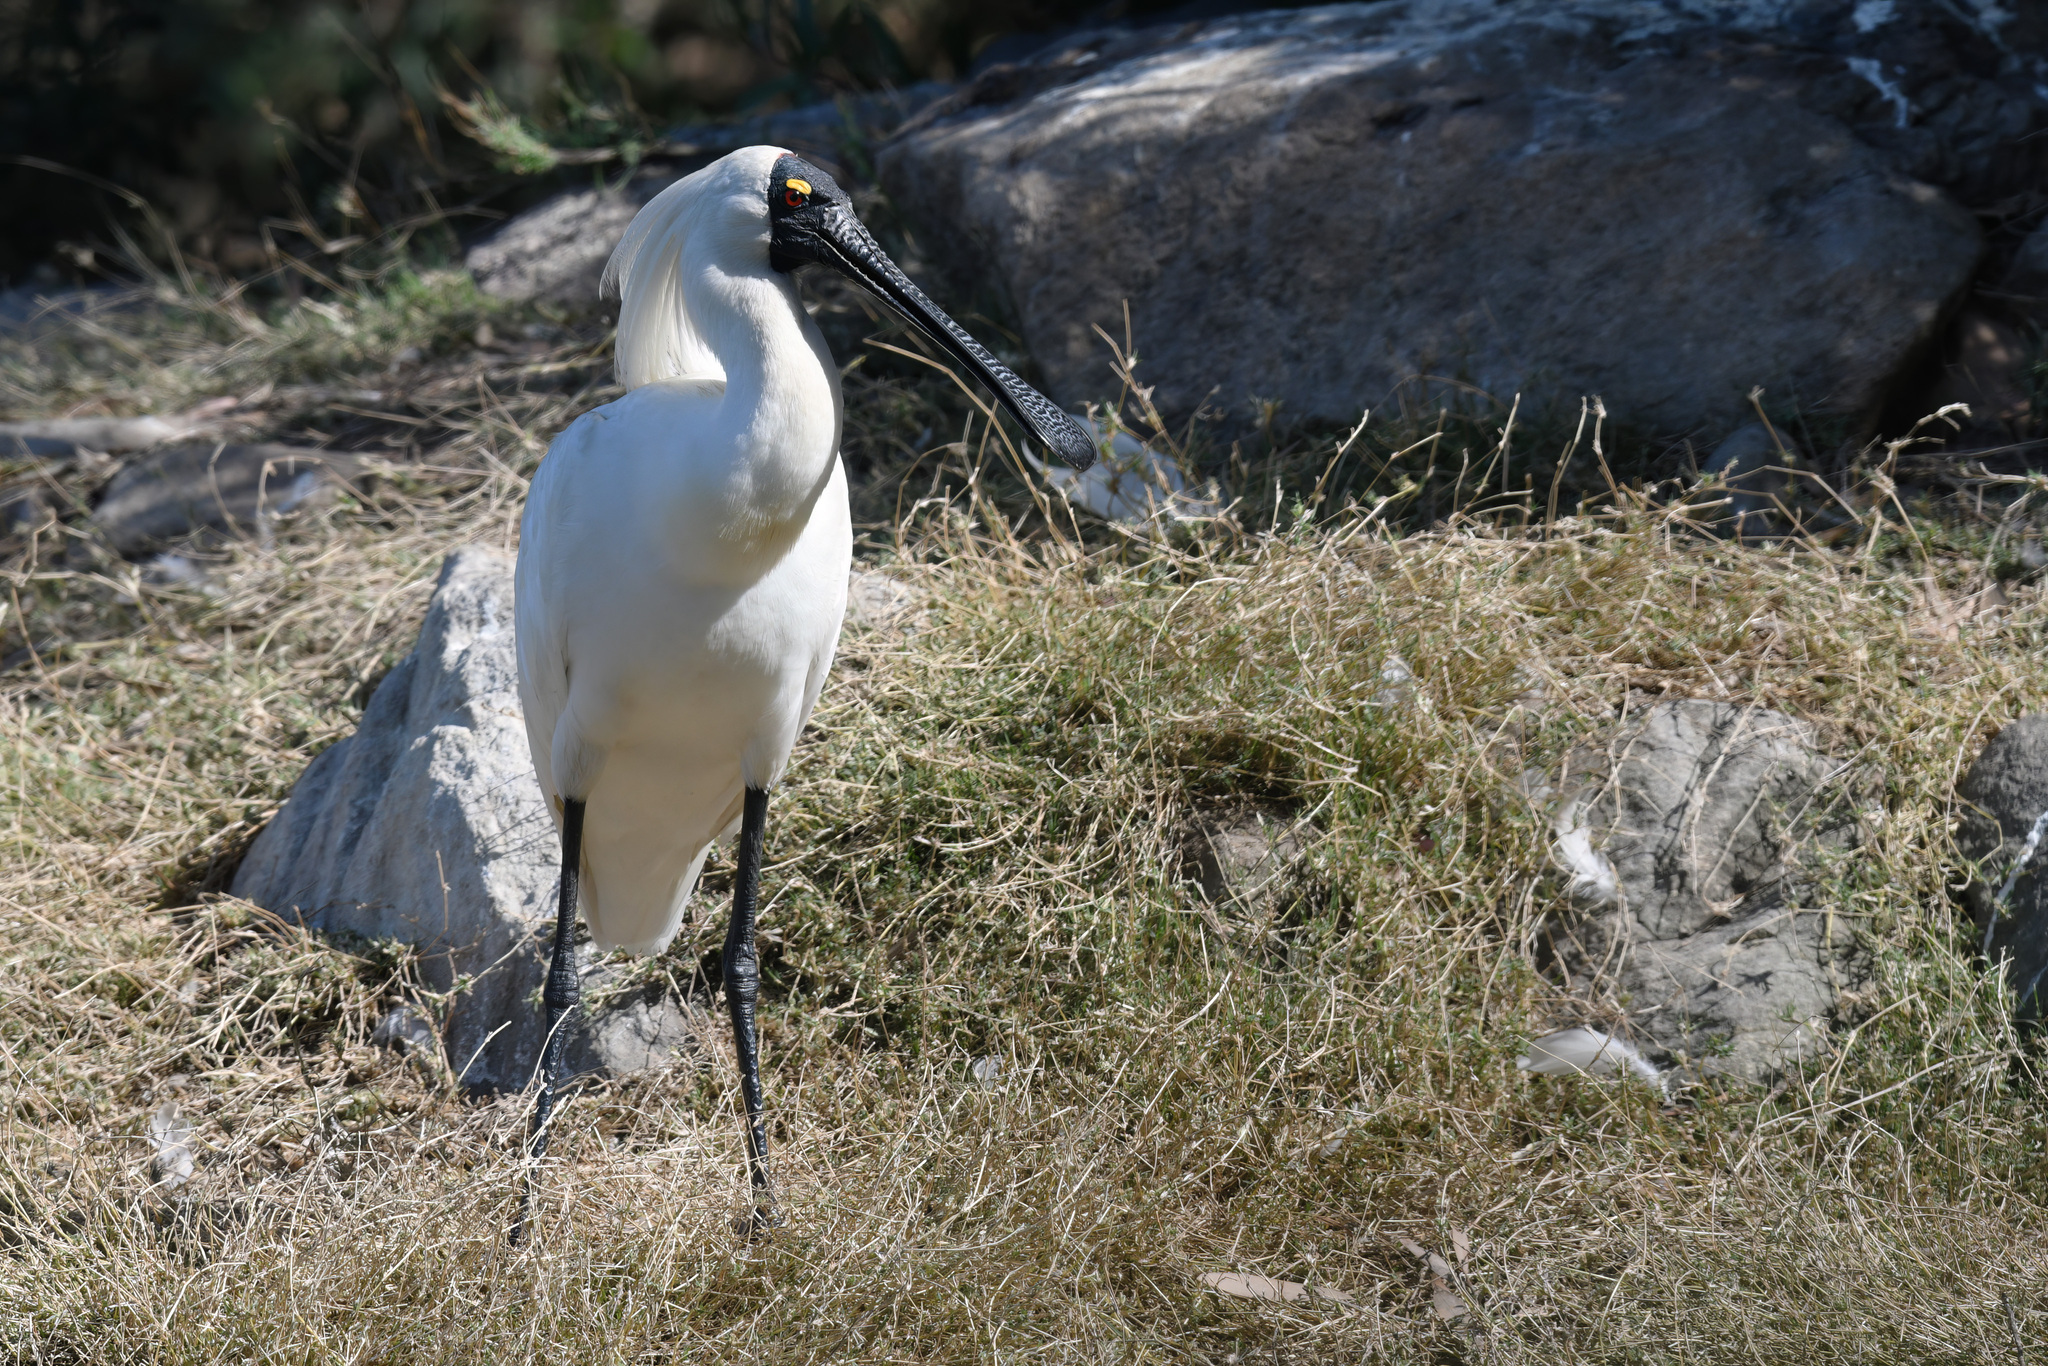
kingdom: Animalia
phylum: Chordata
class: Aves
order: Pelecaniformes
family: Threskiornithidae
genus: Platalea
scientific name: Platalea regia
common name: Royal spoonbill
